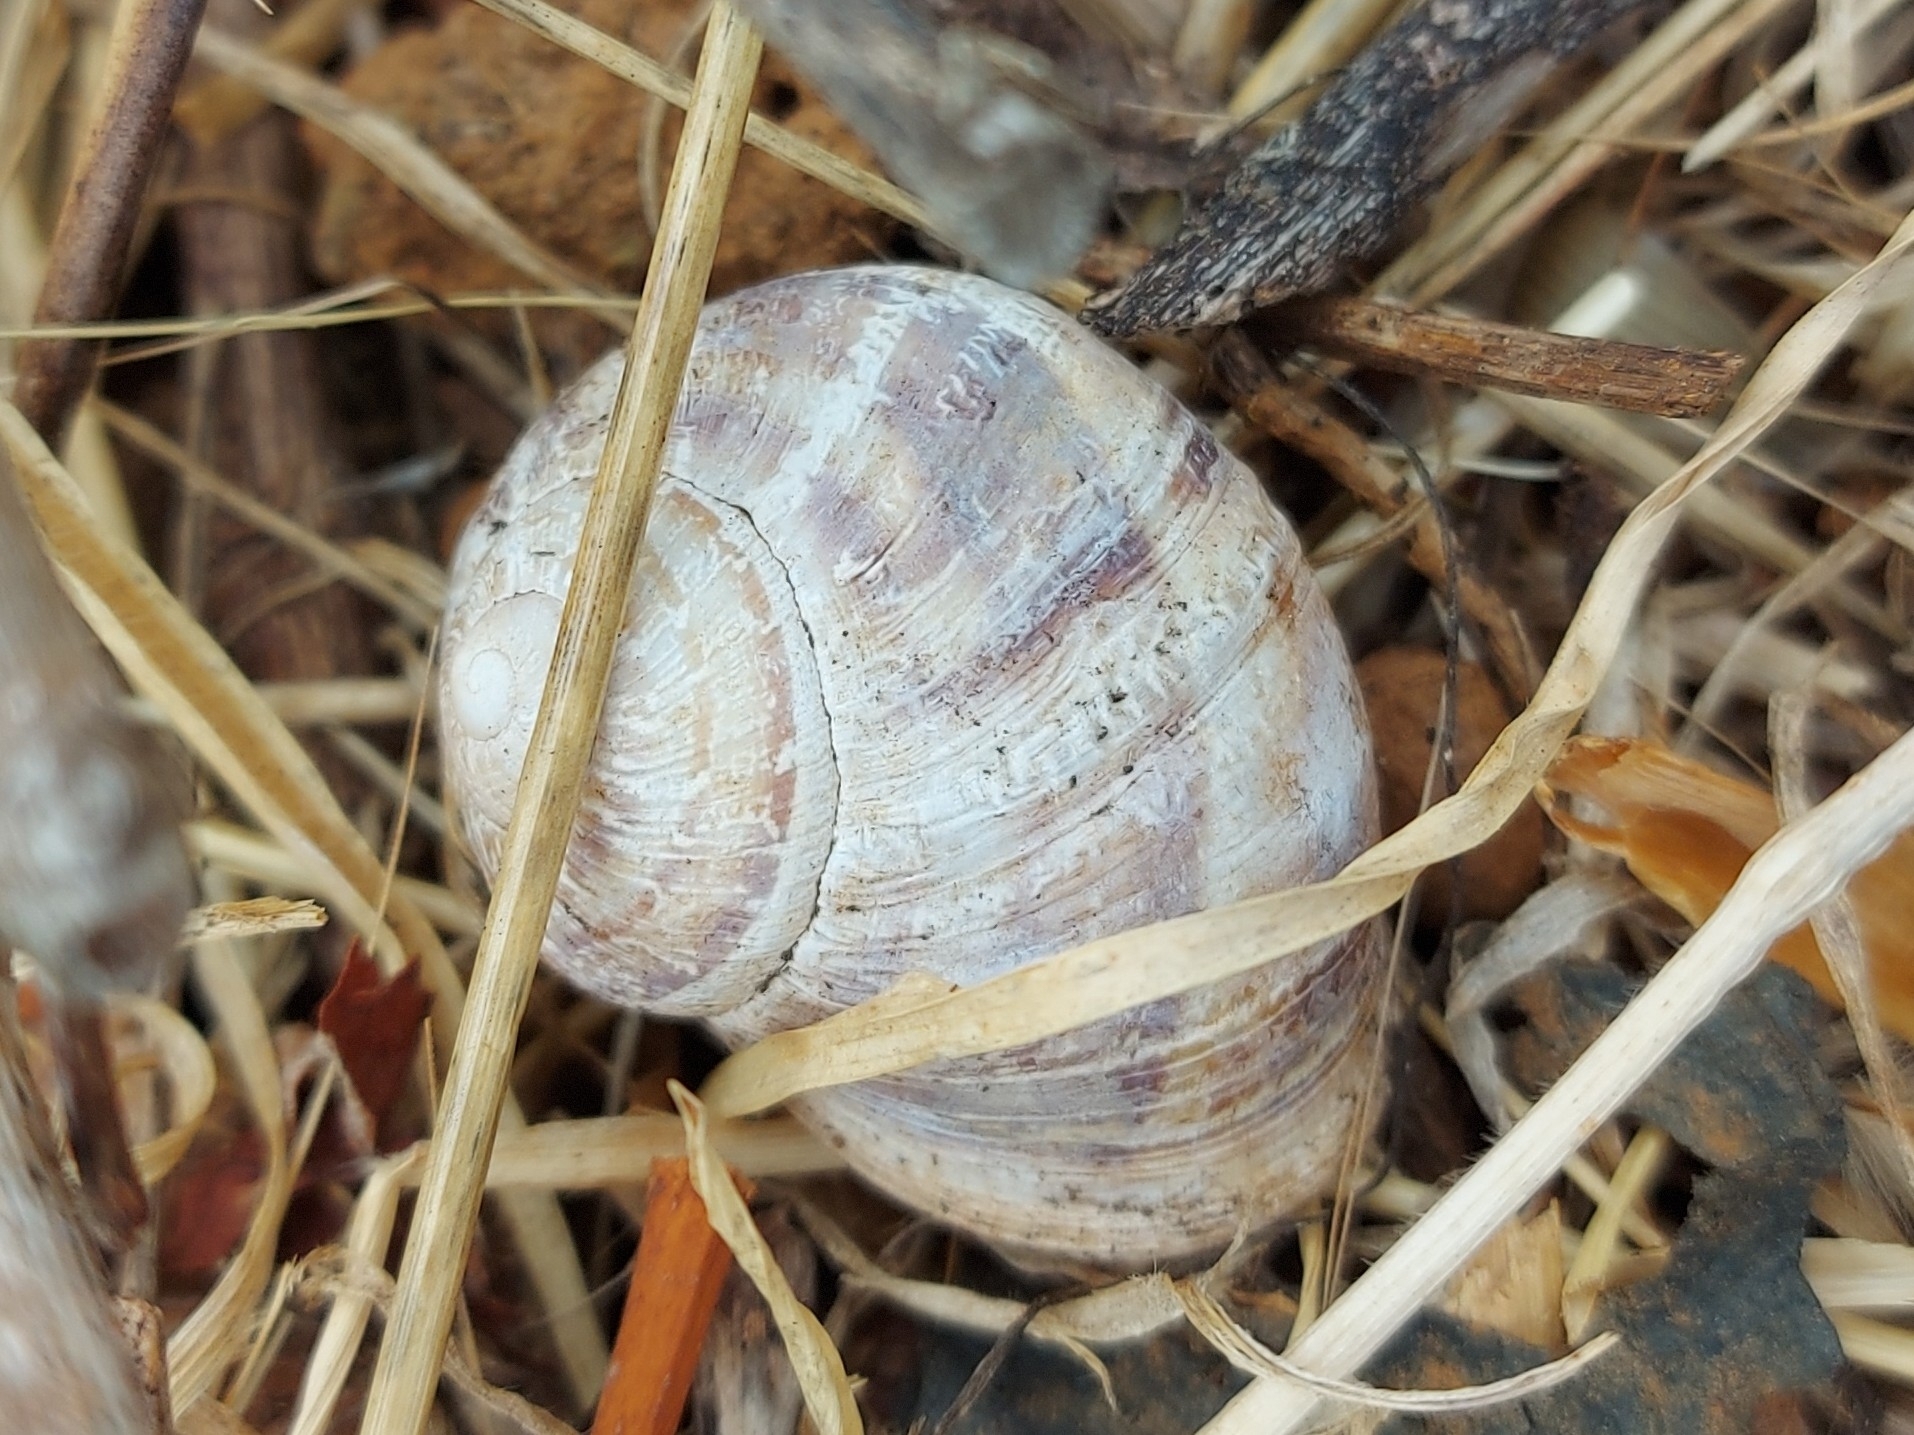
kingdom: Animalia
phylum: Mollusca
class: Gastropoda
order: Stylommatophora
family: Helicidae
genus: Cornu
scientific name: Cornu aspersum
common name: Brown garden snail
